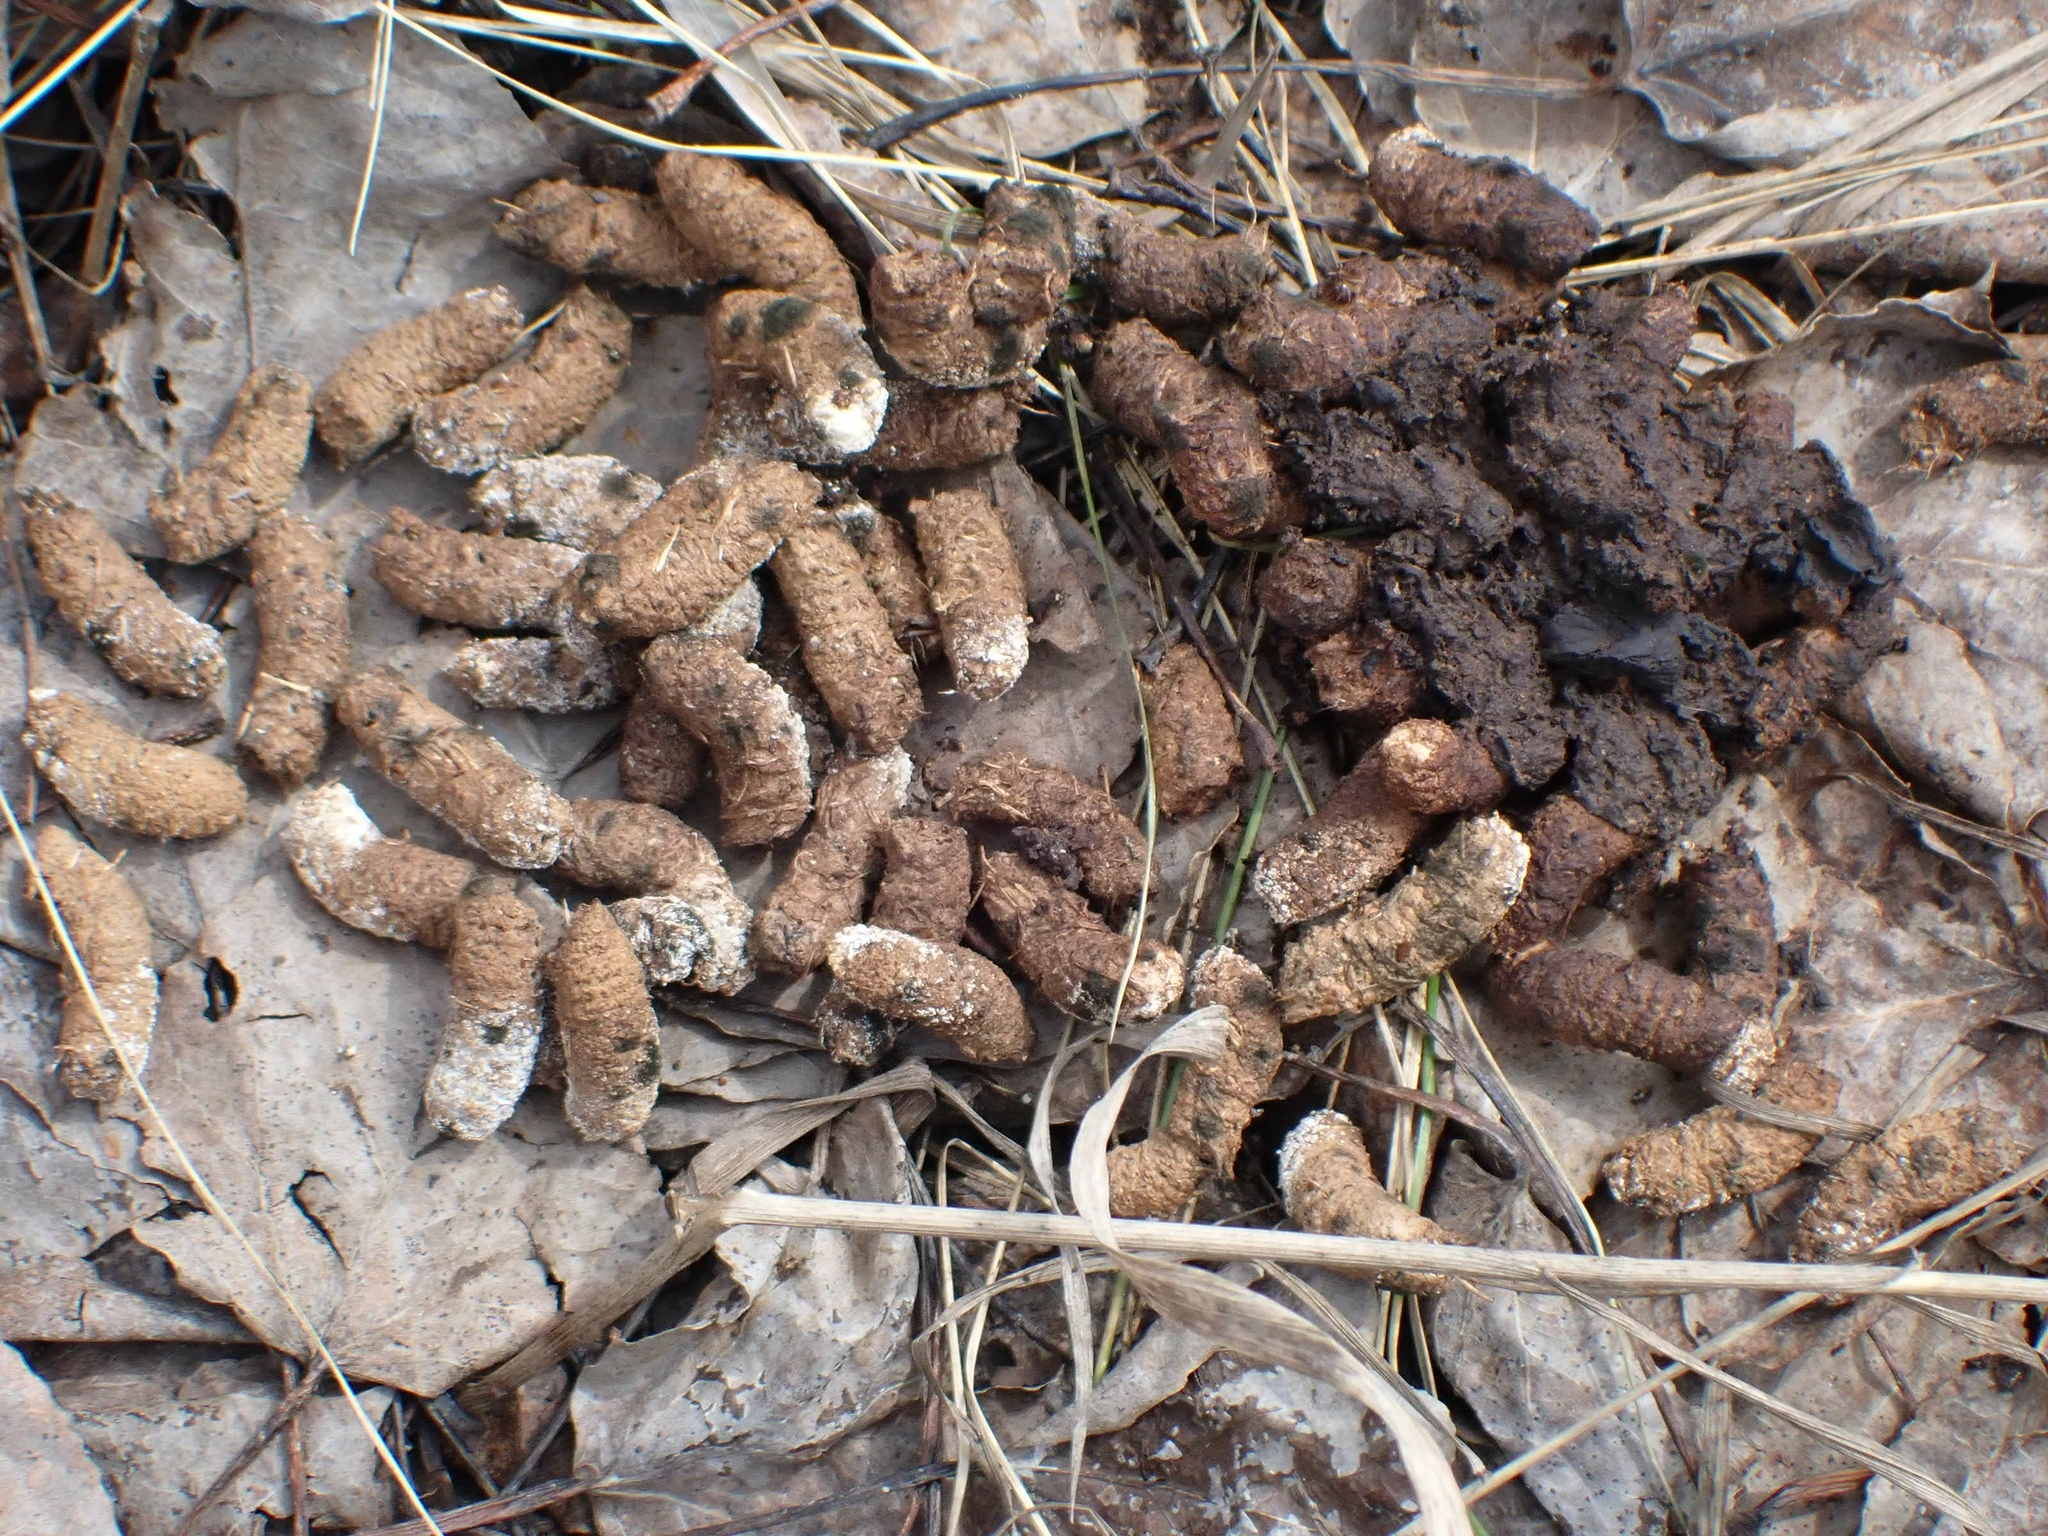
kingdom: Animalia
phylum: Chordata
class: Aves
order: Galliformes
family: Phasianidae
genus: Bonasa
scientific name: Bonasa umbellus
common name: Ruffed grouse
